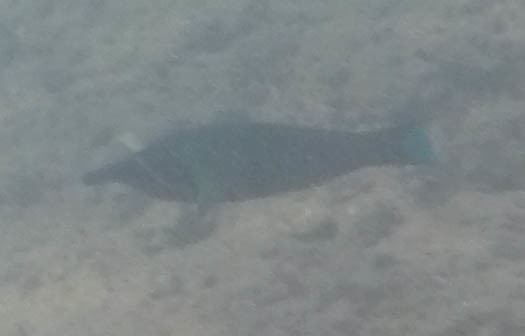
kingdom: Animalia
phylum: Chordata
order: Perciformes
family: Labridae
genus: Gomphosus
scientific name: Gomphosus varius
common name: Bird wrasse
